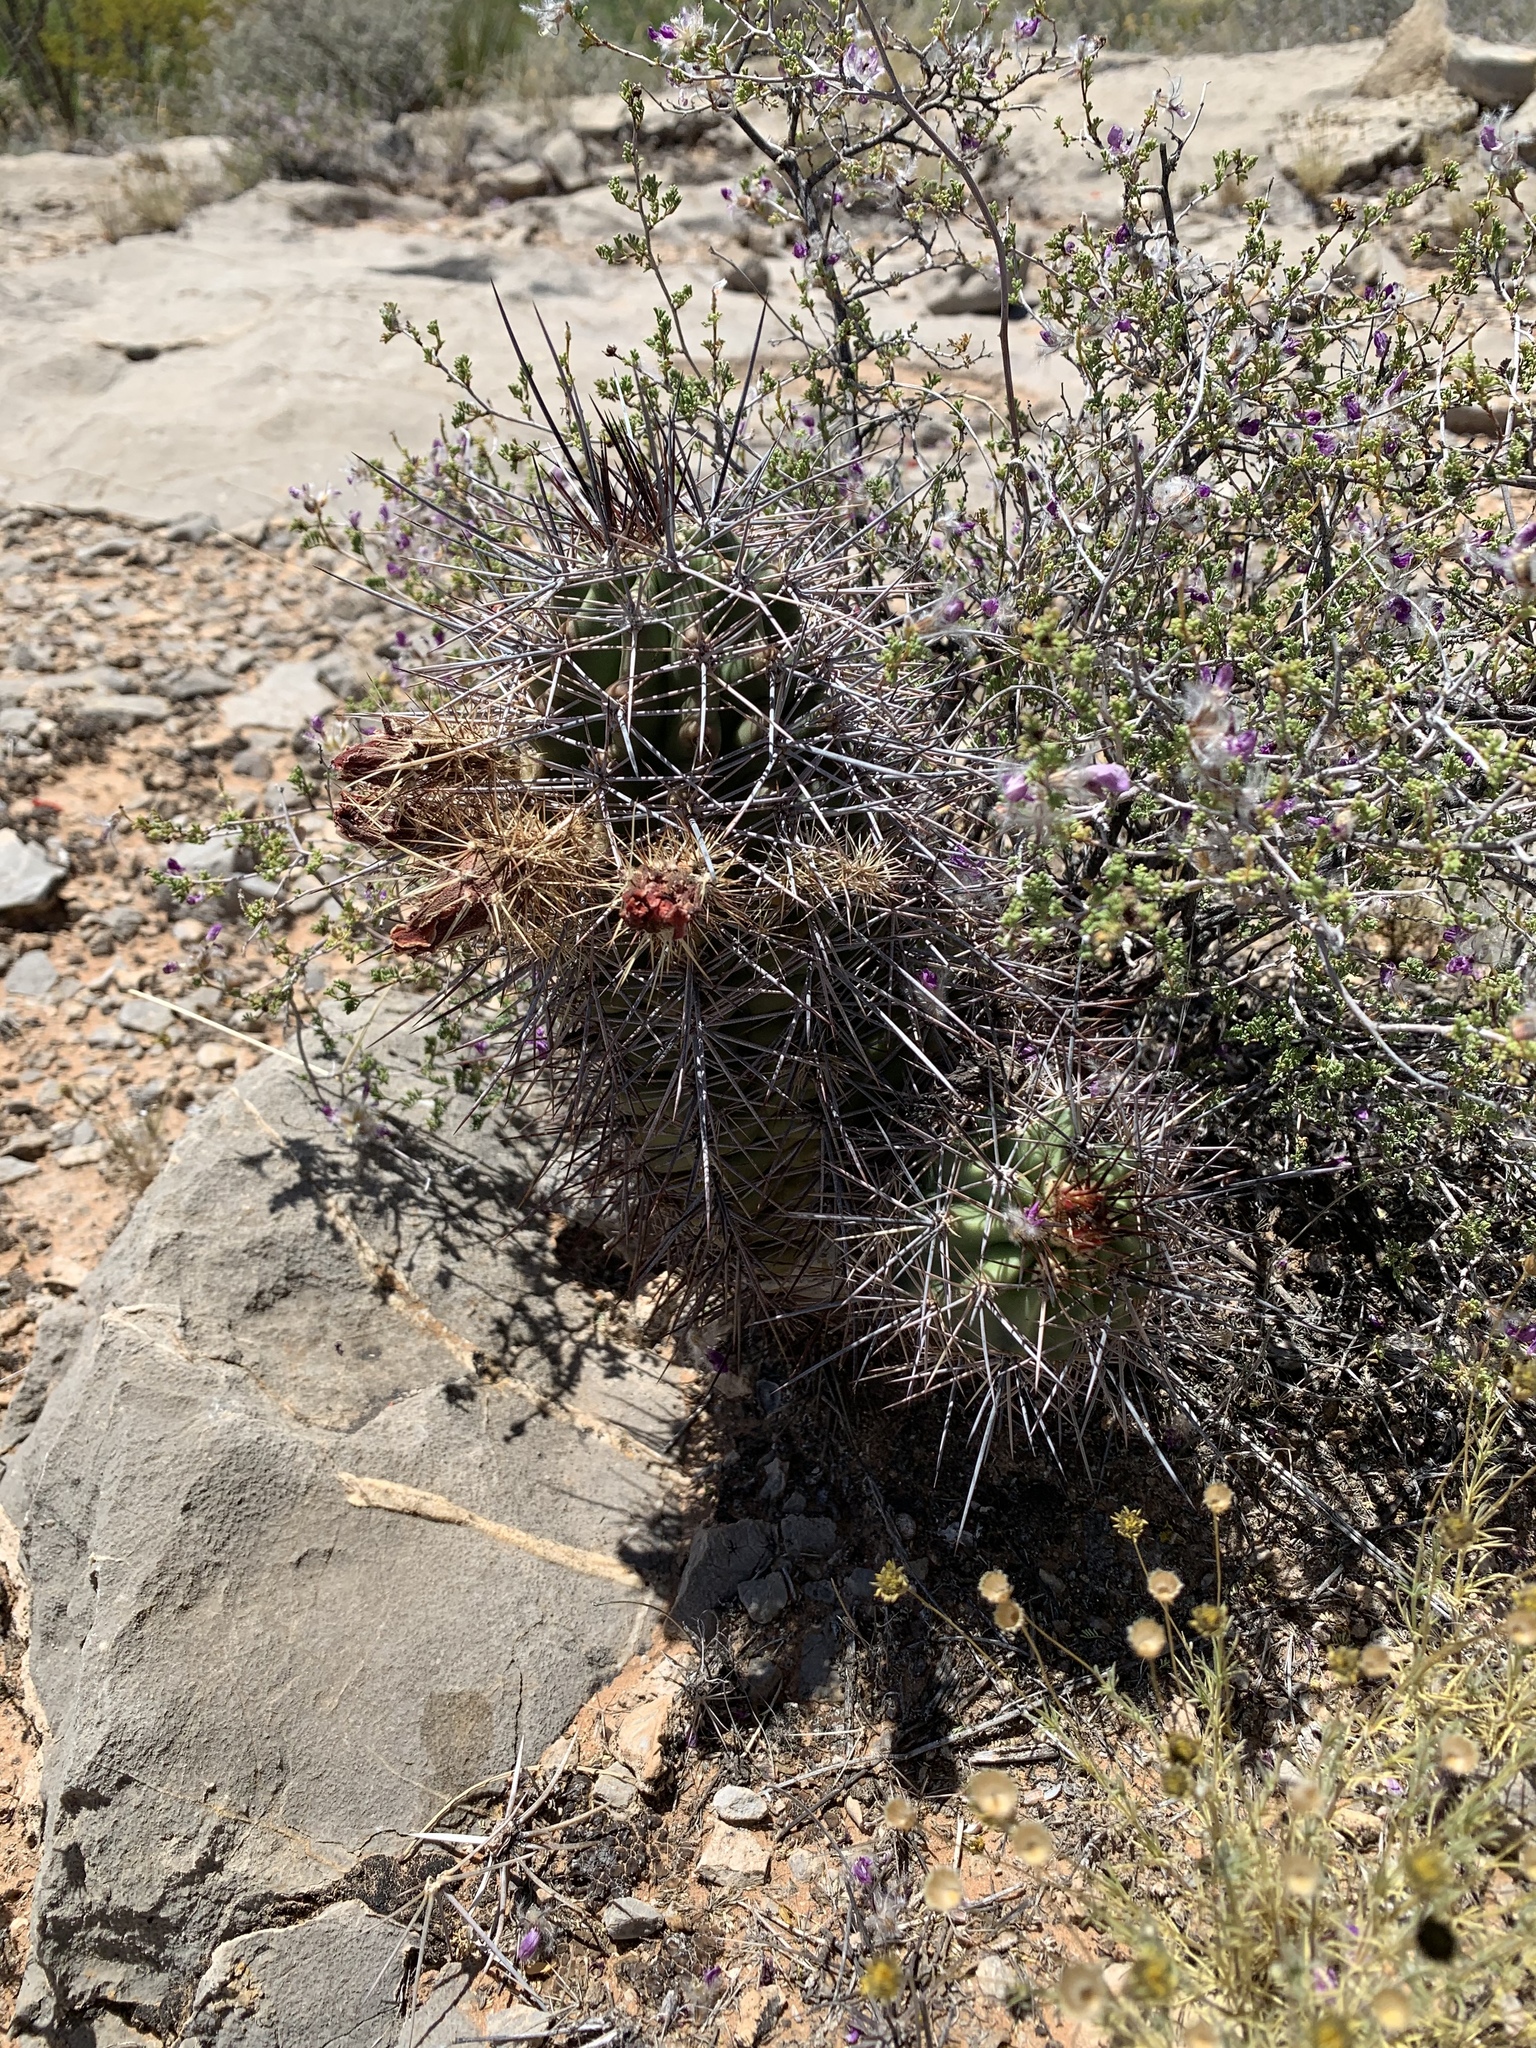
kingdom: Plantae
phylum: Tracheophyta
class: Magnoliopsida
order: Caryophyllales
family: Cactaceae
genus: Echinocereus
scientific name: Echinocereus coccineus
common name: Scarlet hedgehog cactus
